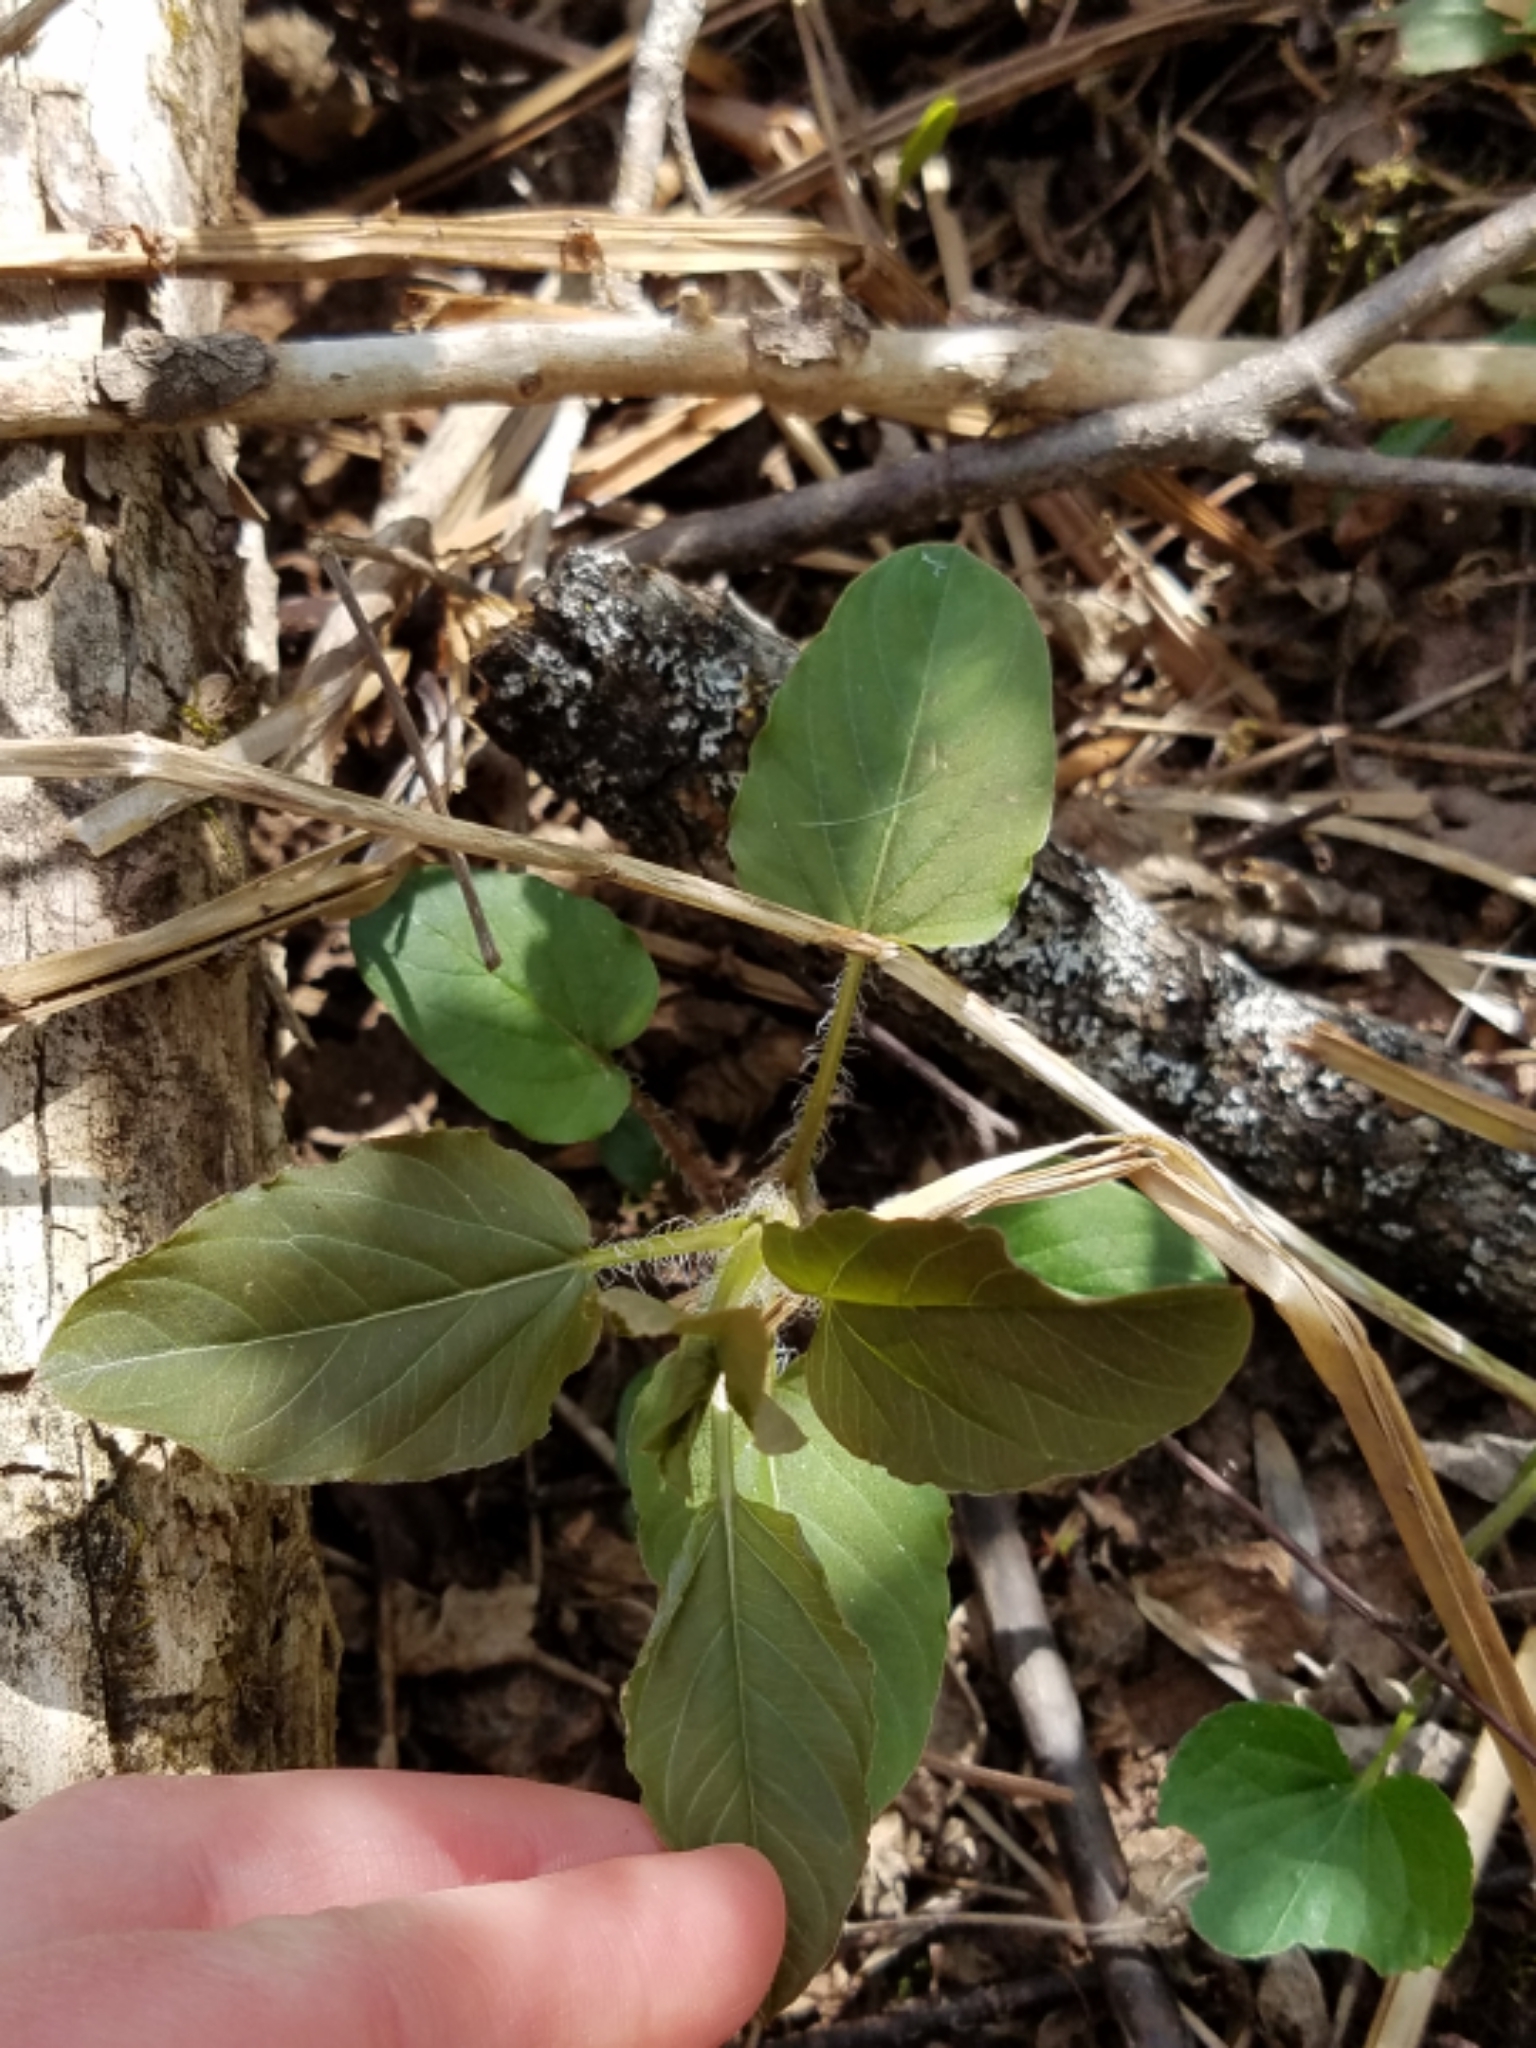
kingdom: Plantae
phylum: Tracheophyta
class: Magnoliopsida
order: Ericales
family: Primulaceae
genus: Lysimachia
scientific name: Lysimachia ciliata
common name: Fringed loosestrife
